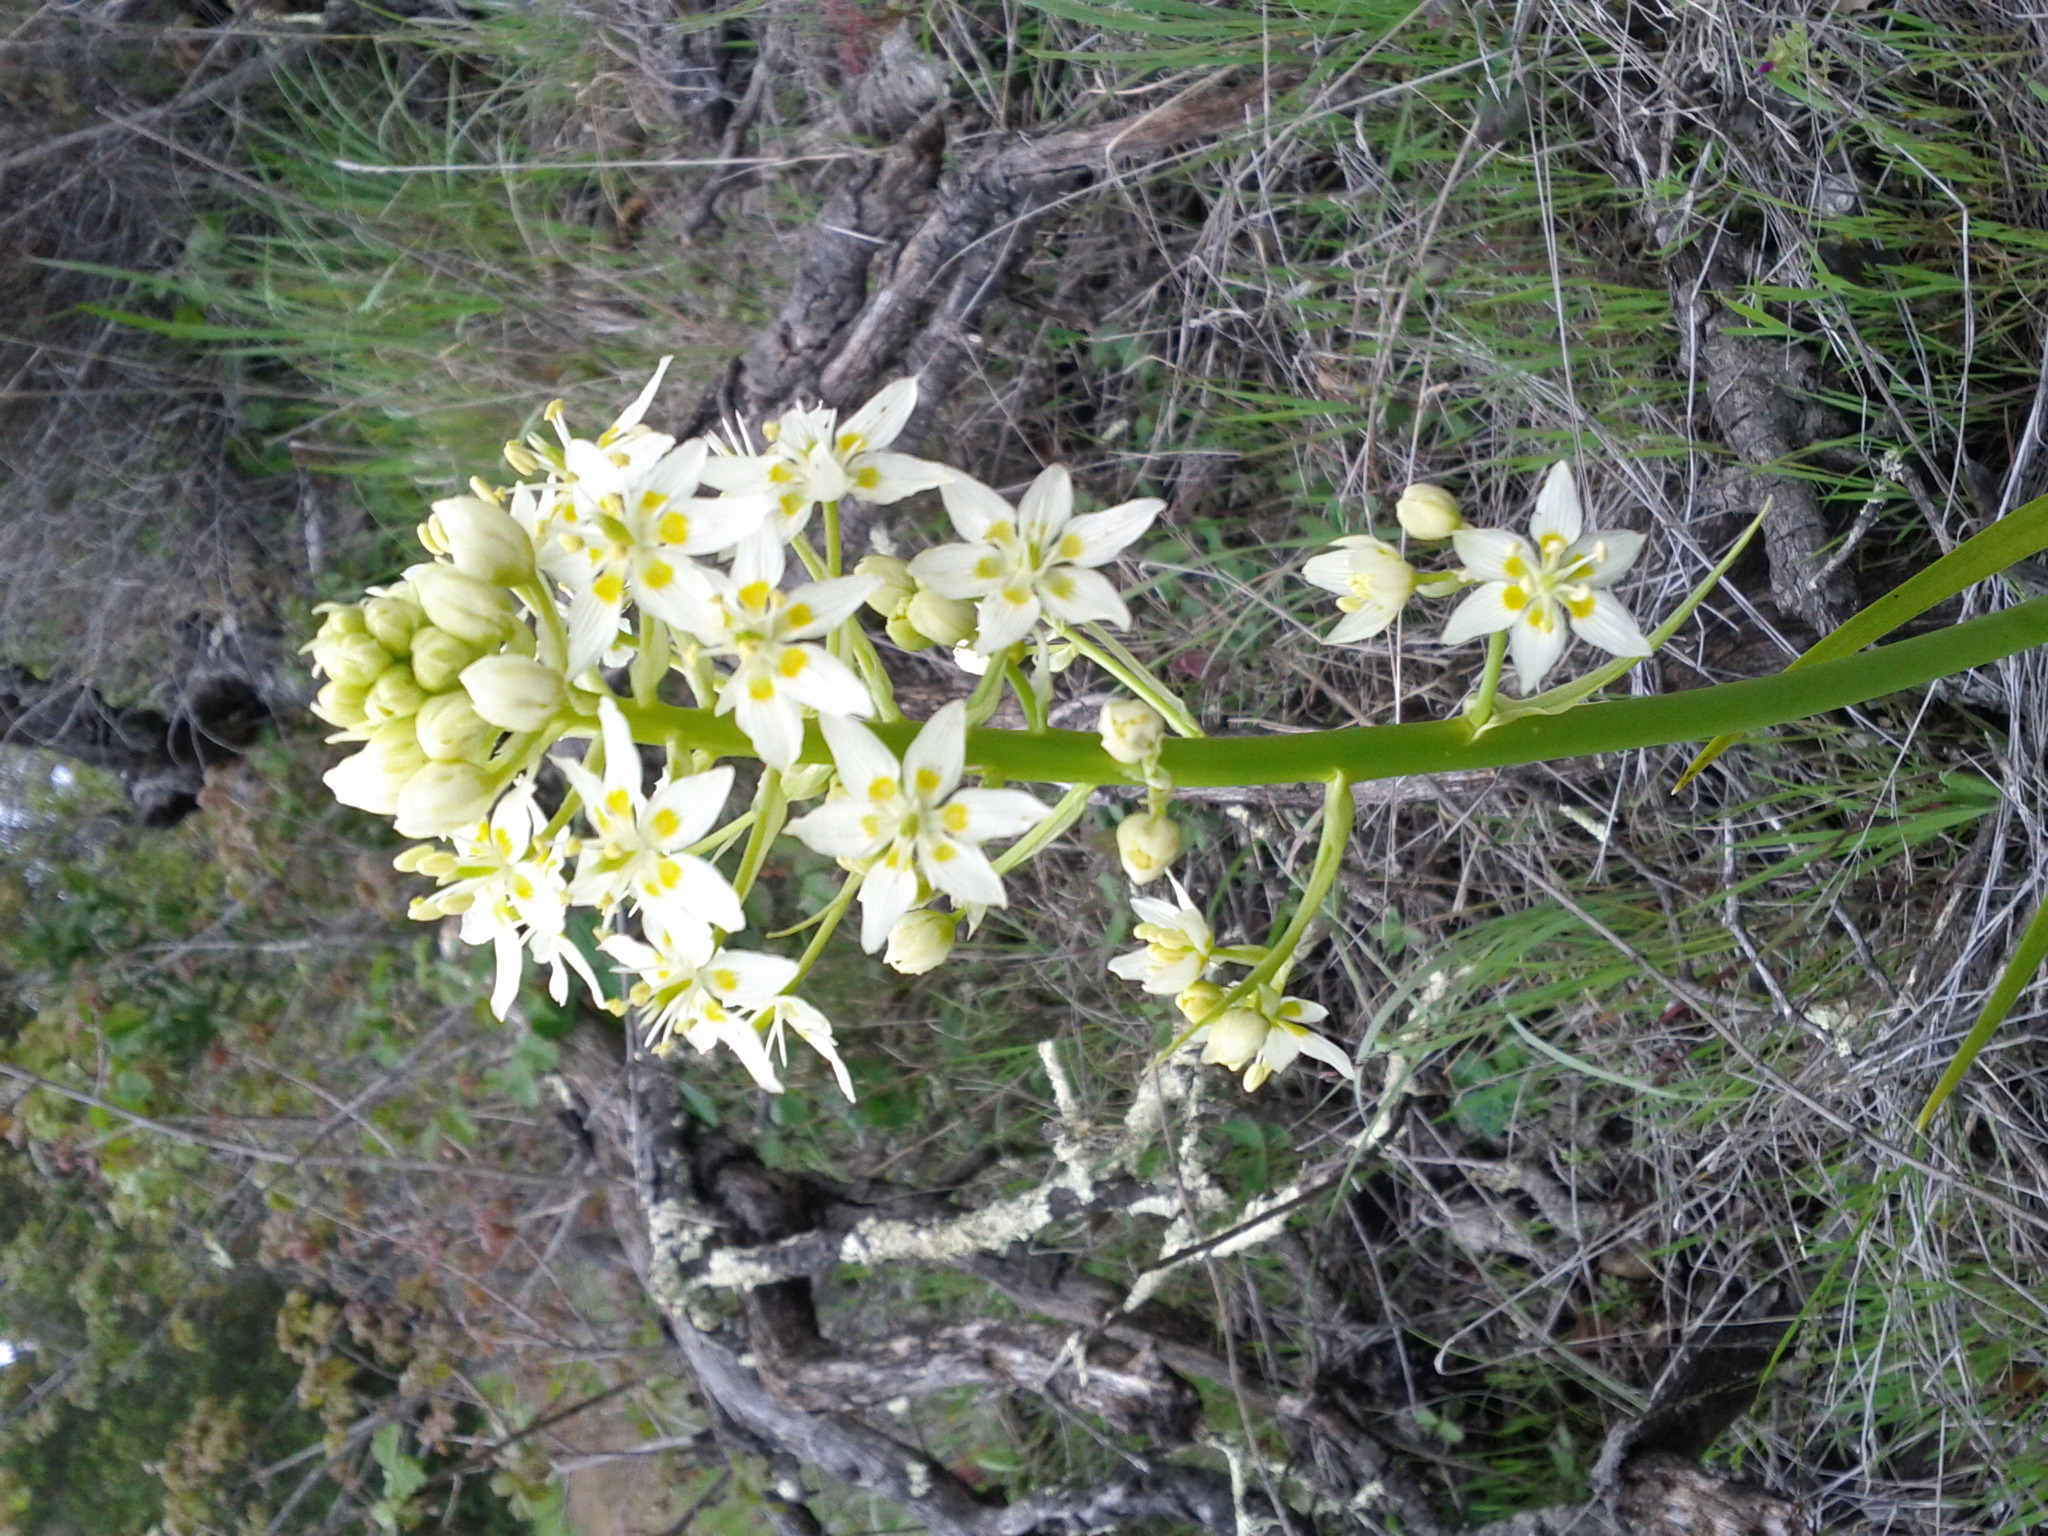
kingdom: Plantae
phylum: Tracheophyta
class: Liliopsida
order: Liliales
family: Melanthiaceae
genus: Toxicoscordion
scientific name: Toxicoscordion fremontii
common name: Fremont's death camas
